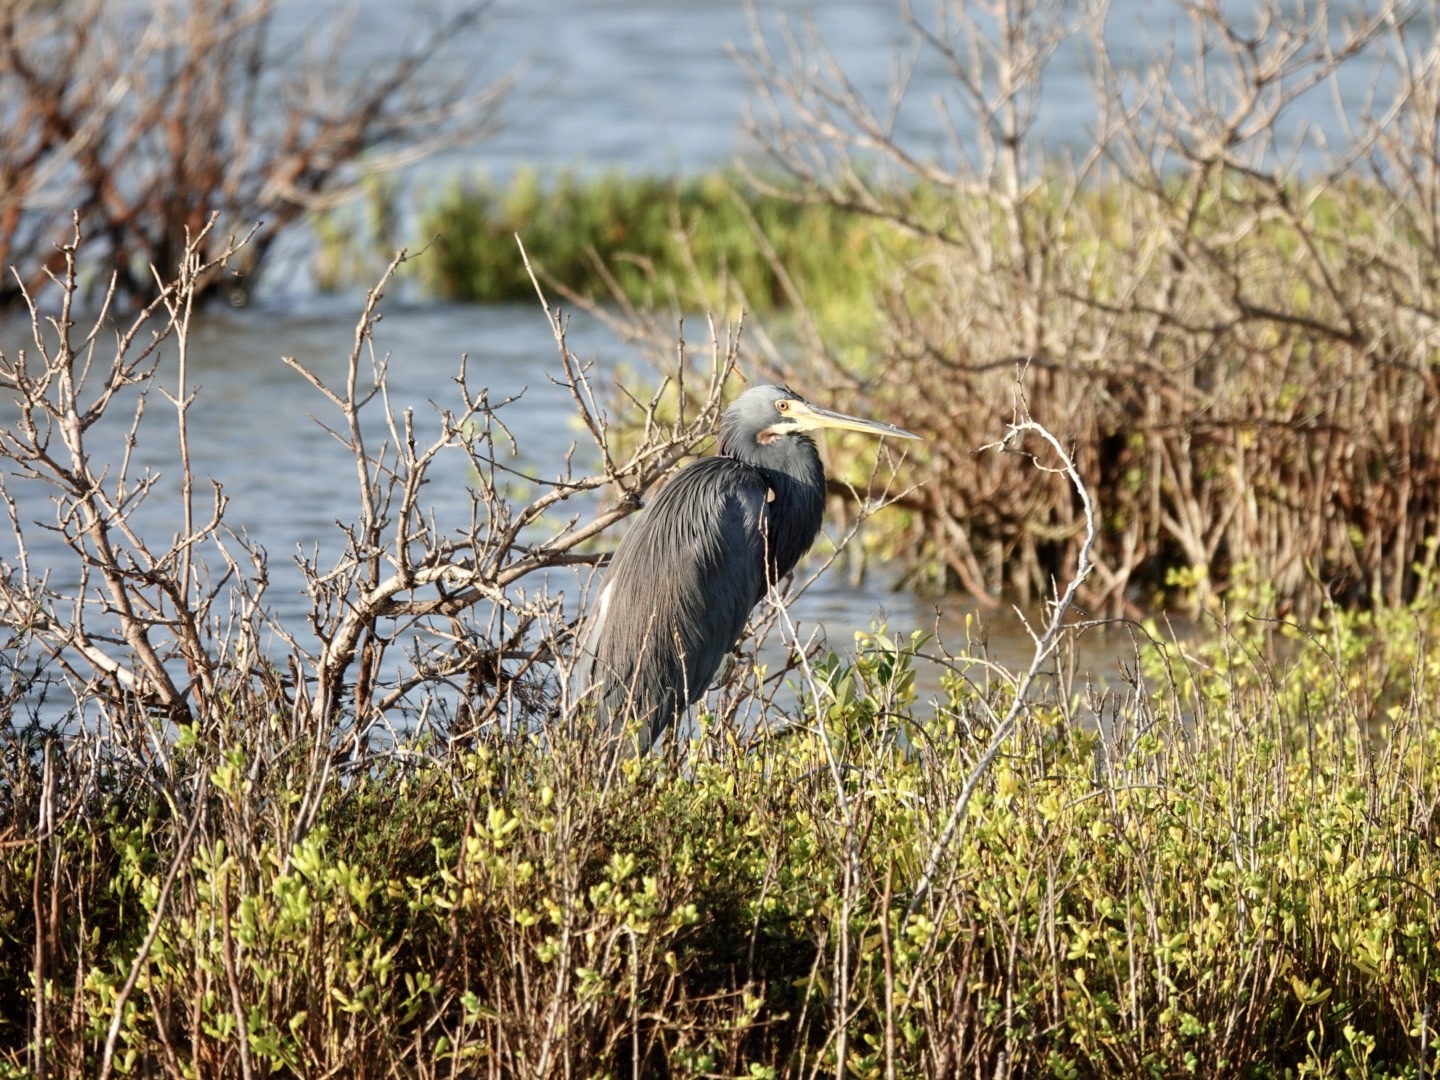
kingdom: Animalia
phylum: Chordata
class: Aves
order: Pelecaniformes
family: Ardeidae
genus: Egretta
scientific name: Egretta tricolor
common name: Tricolored heron
